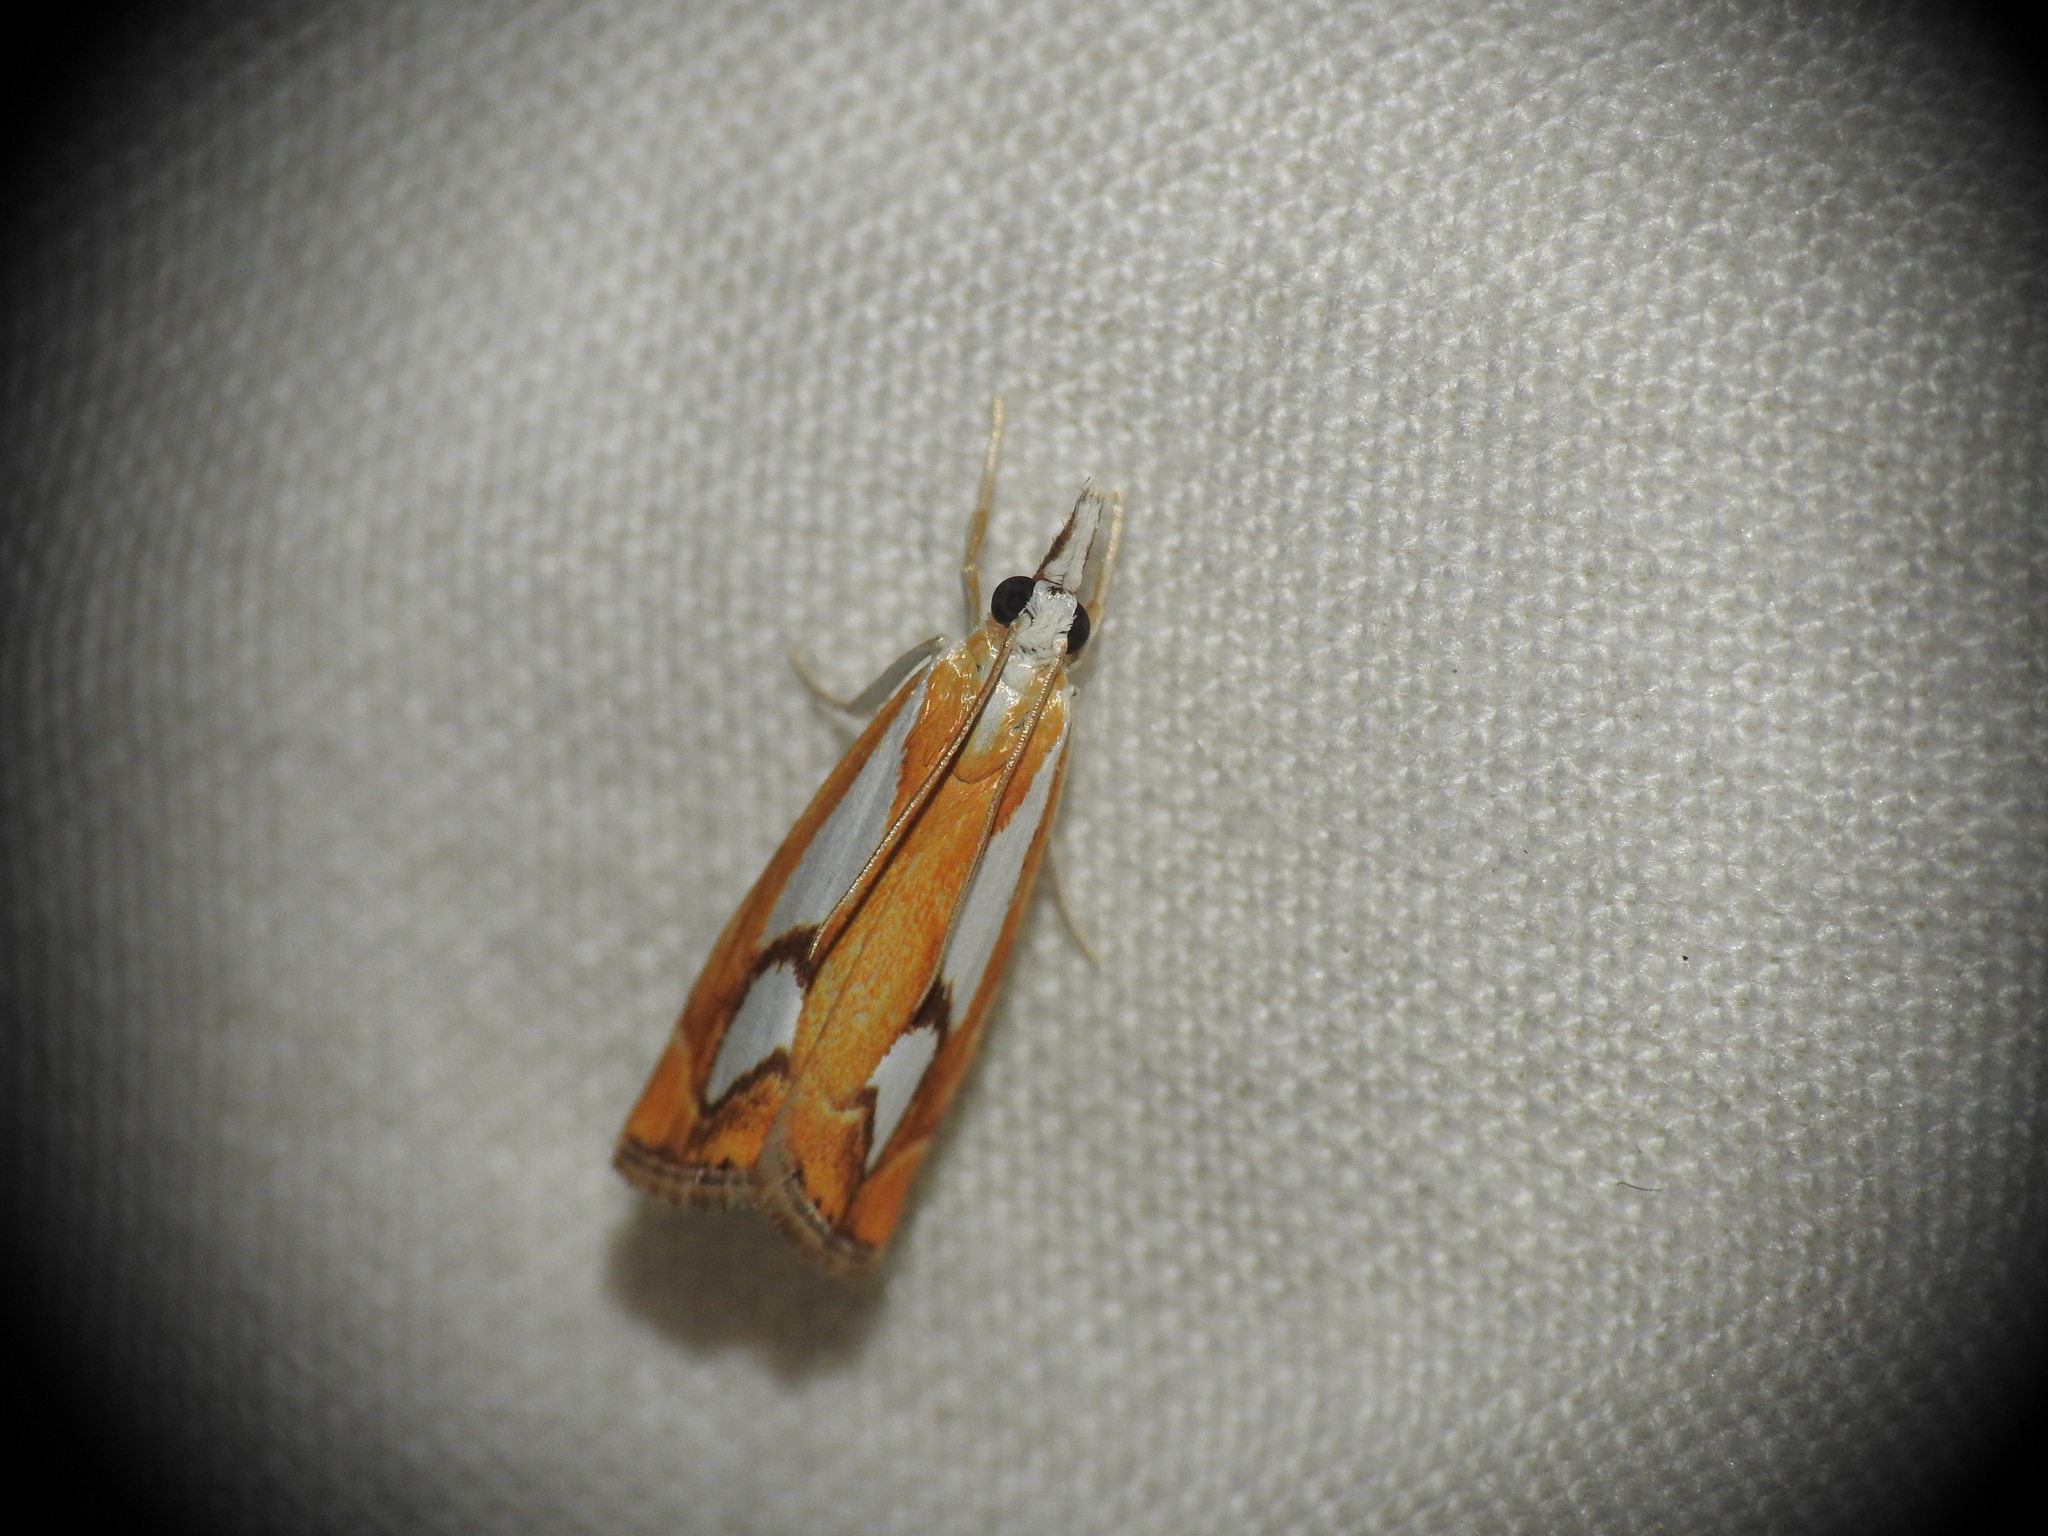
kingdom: Animalia
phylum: Arthropoda
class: Insecta
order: Lepidoptera
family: Crambidae
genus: Catoptria
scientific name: Catoptria pinella
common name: Pearl grass-veneer
